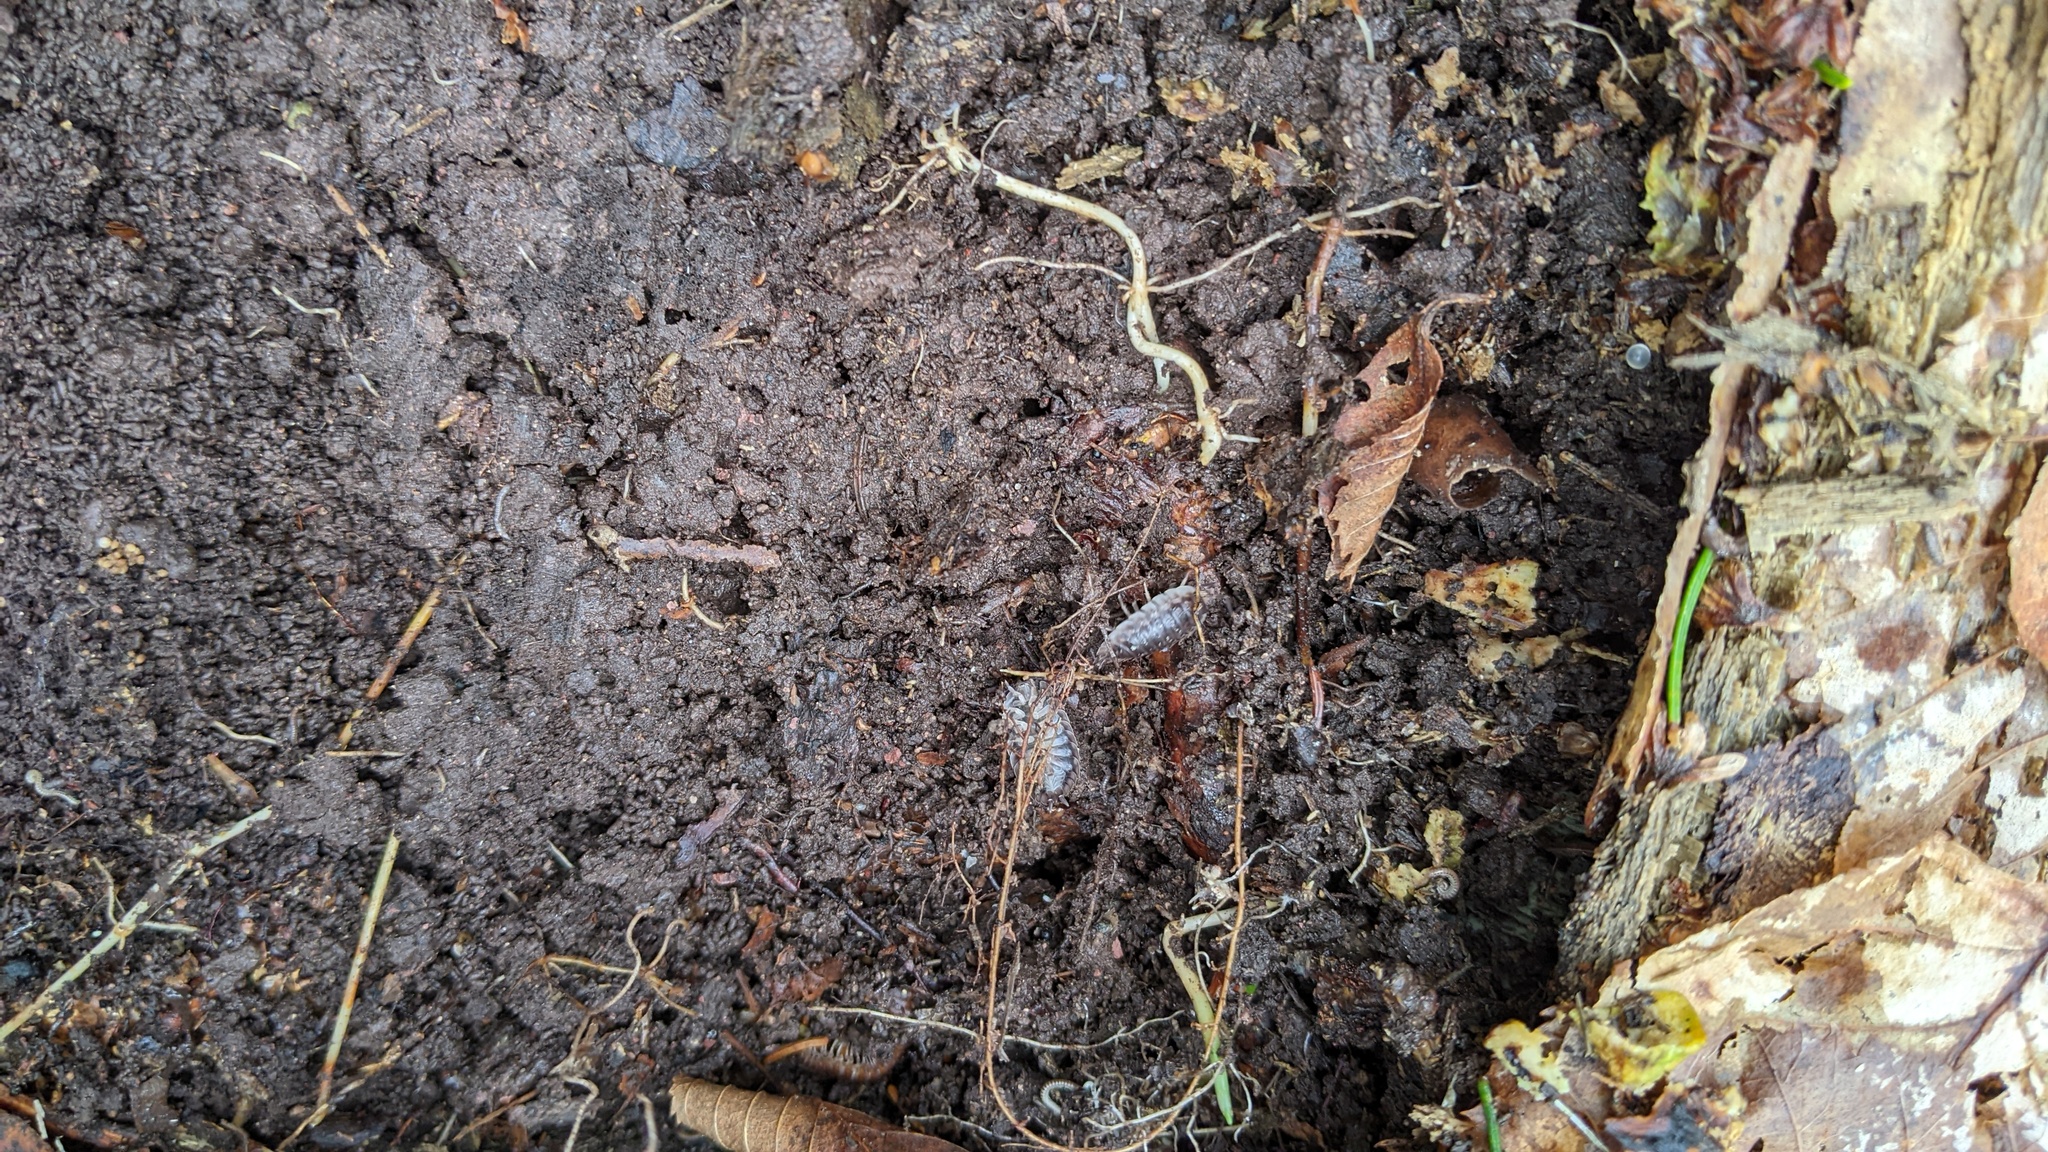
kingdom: Animalia
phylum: Arthropoda
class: Malacostraca
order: Isopoda
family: Oniscidae
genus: Oniscus
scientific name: Oniscus asellus
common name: Common shiny woodlouse
